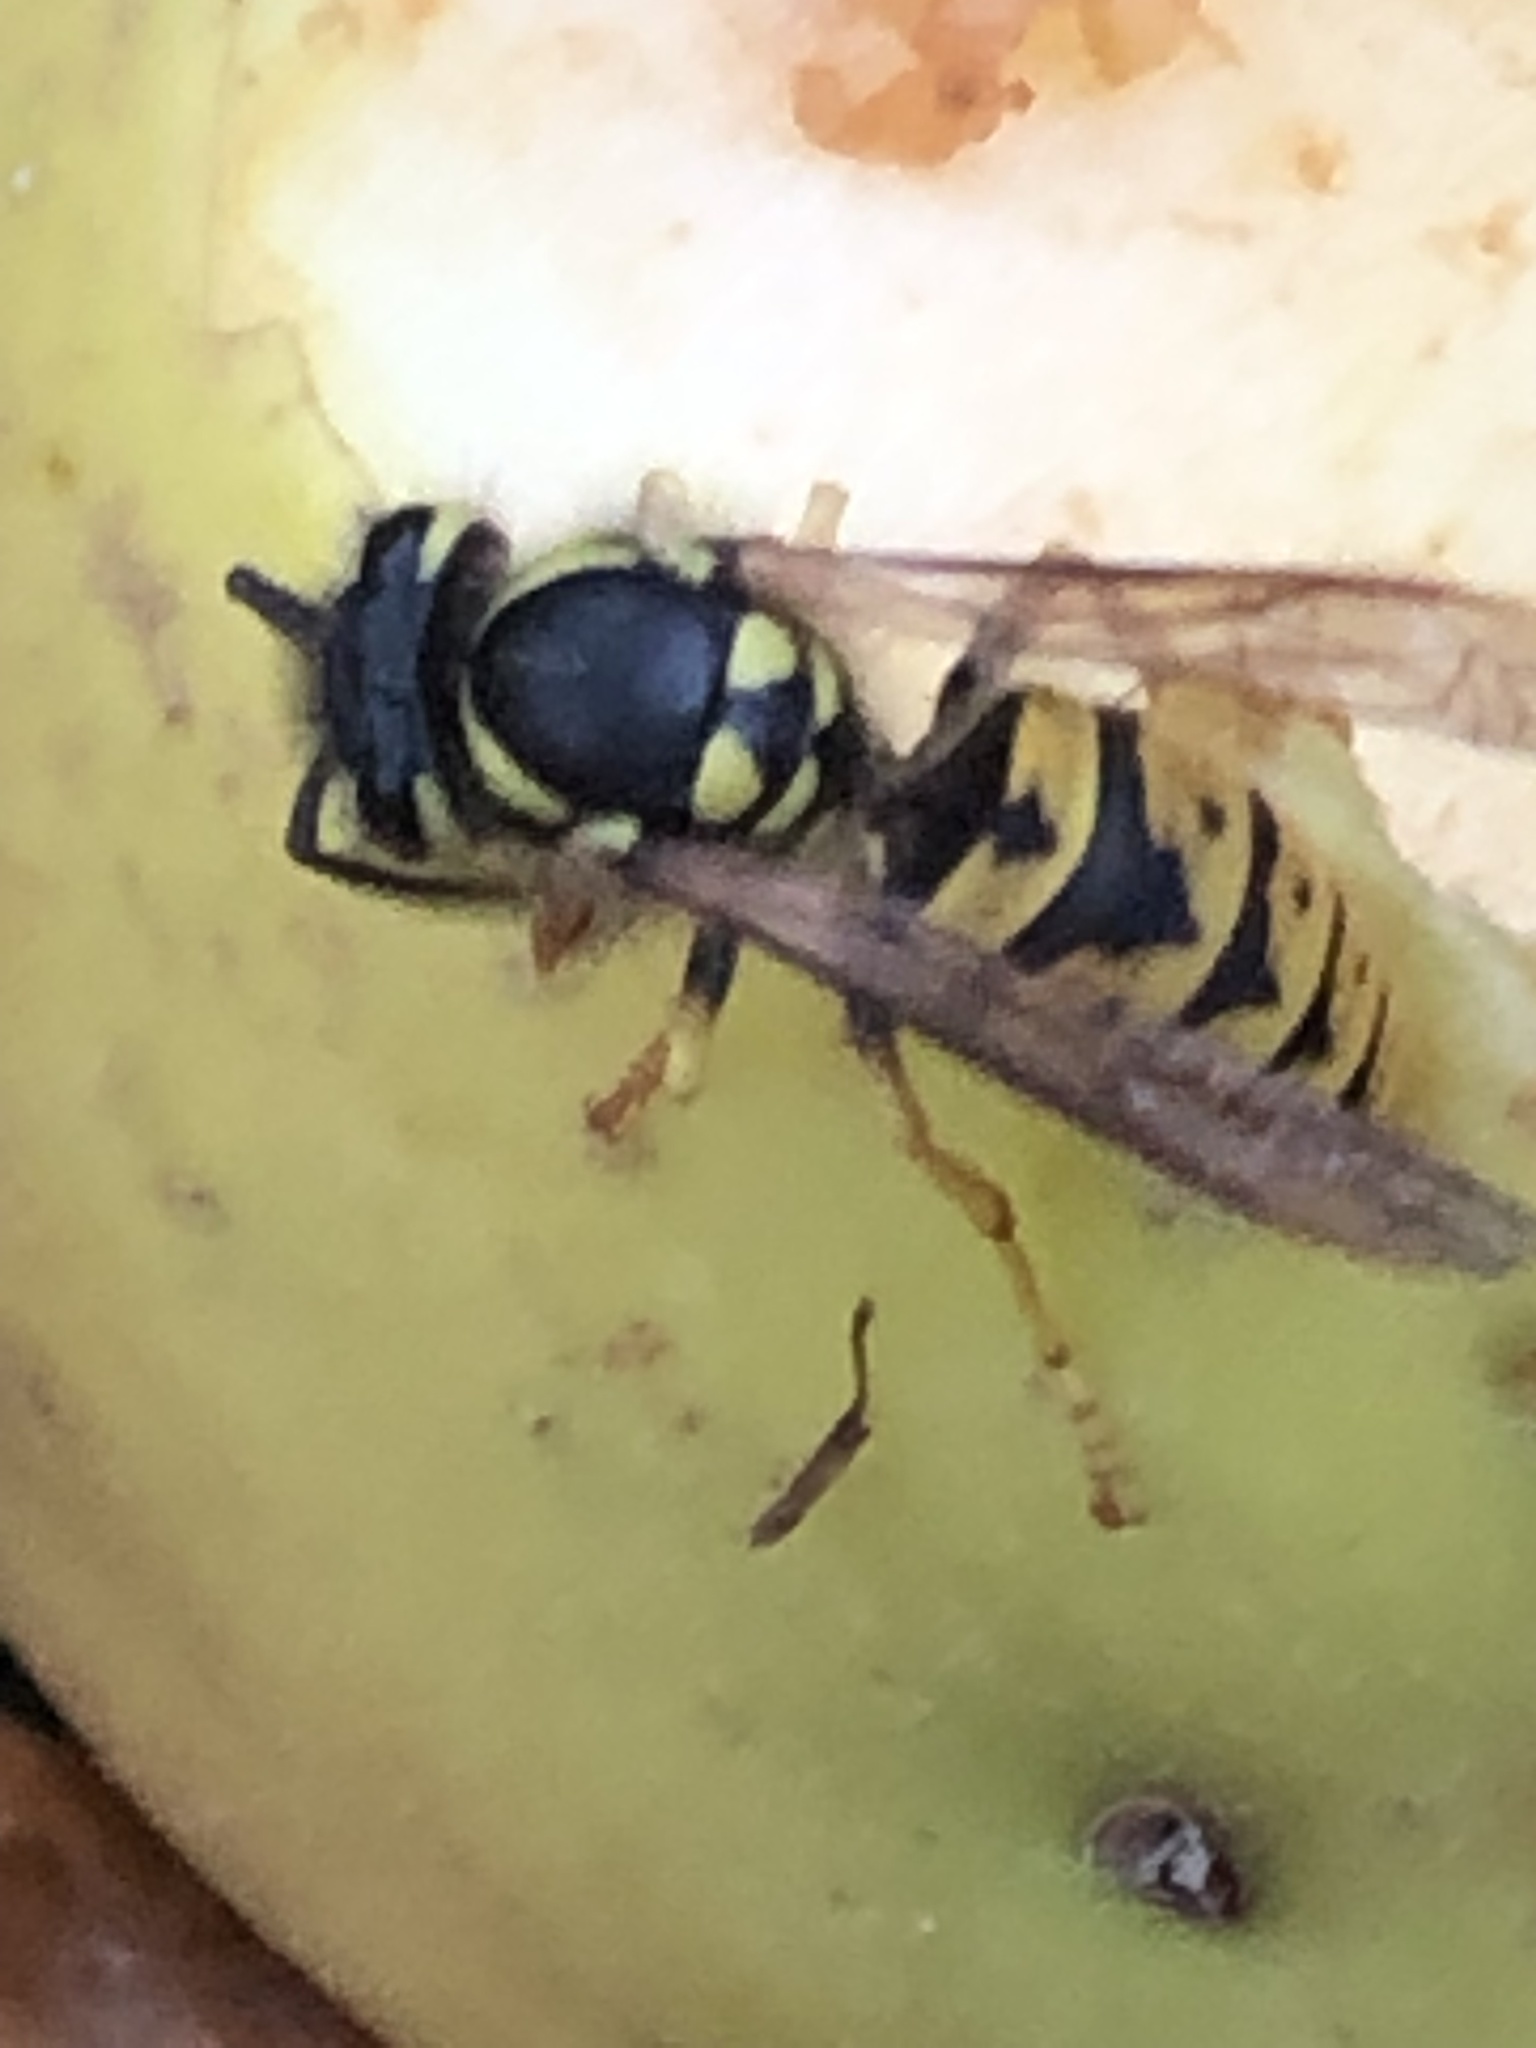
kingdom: Animalia
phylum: Arthropoda
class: Insecta
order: Hymenoptera
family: Vespidae
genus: Vespula
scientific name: Vespula germanica
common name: German wasp
